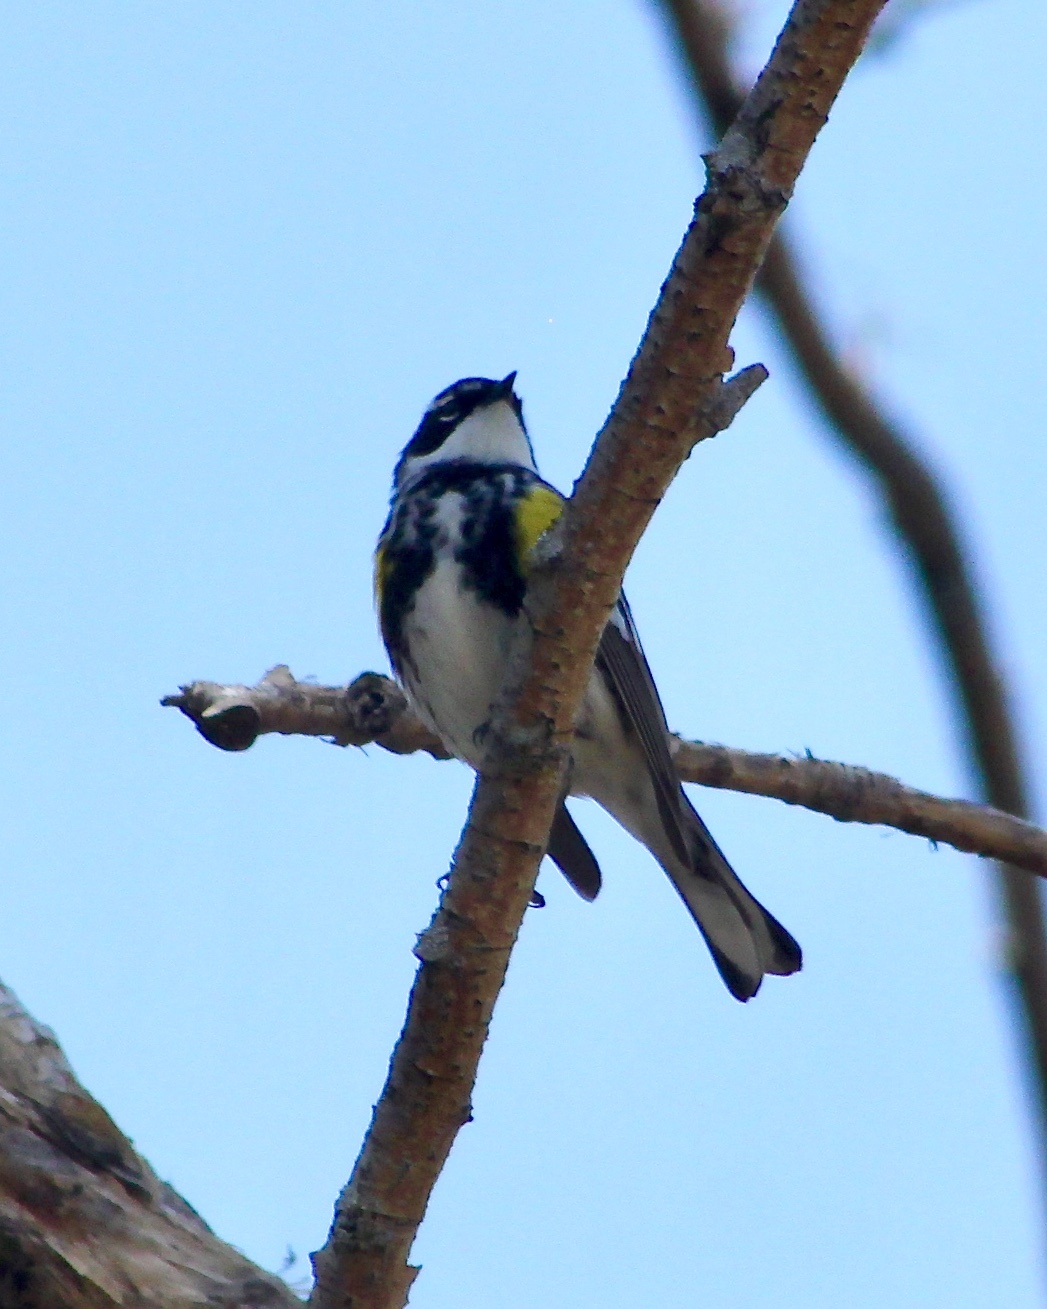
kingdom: Animalia
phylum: Chordata
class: Aves
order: Passeriformes
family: Parulidae
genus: Setophaga
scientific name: Setophaga coronata
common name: Myrtle warbler
